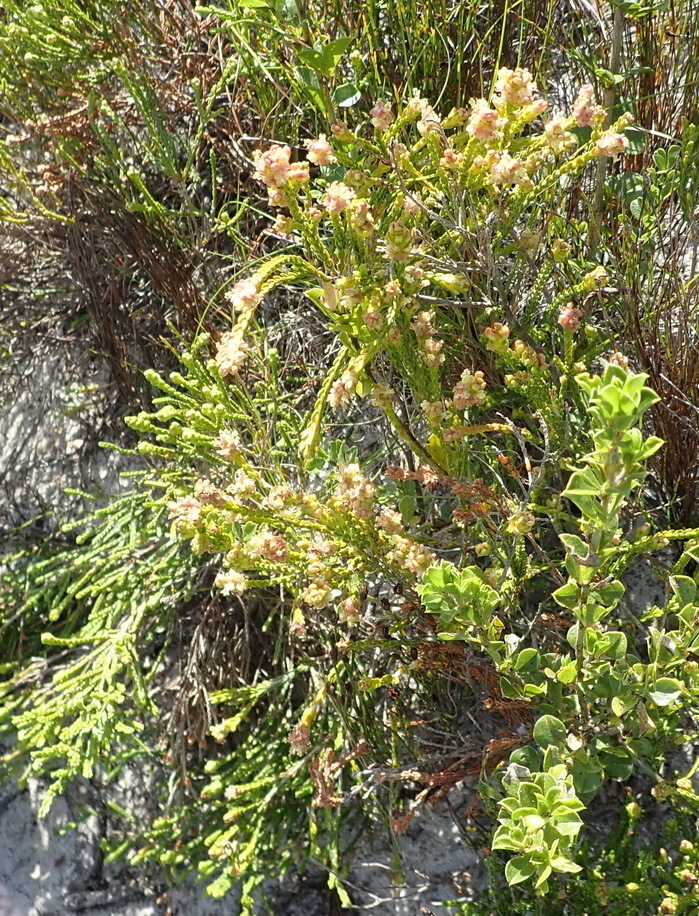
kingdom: Plantae
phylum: Tracheophyta
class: Magnoliopsida
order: Malvales
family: Thymelaeaceae
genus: Passerina
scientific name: Passerina rigida
